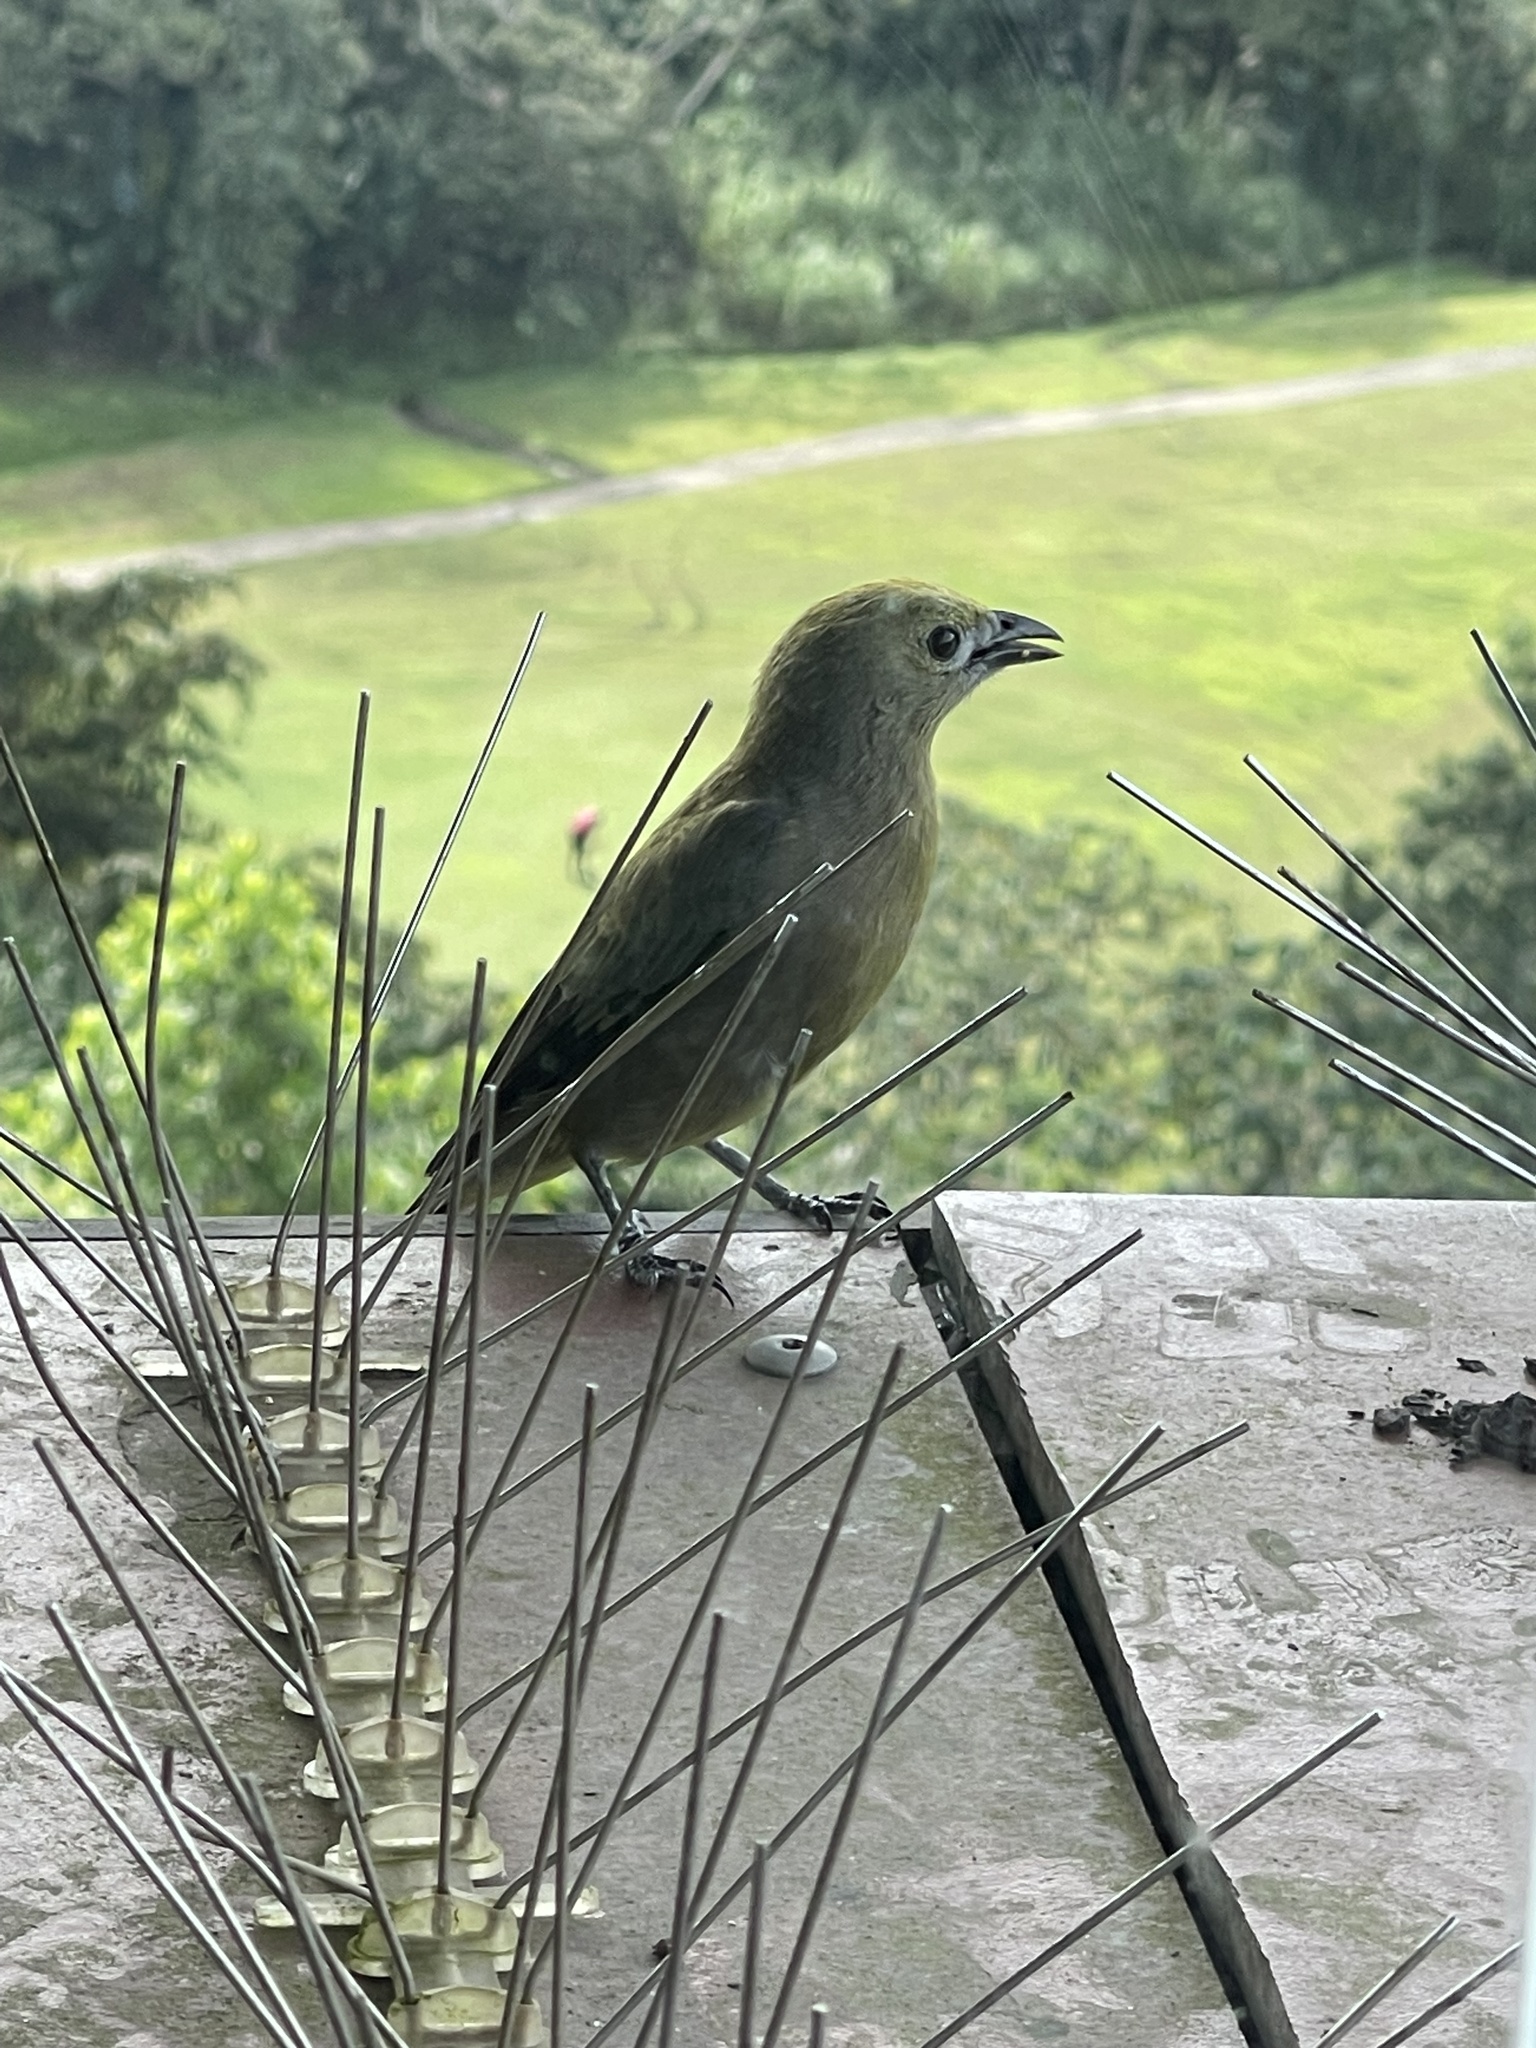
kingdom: Animalia
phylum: Chordata
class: Aves
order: Passeriformes
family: Thraupidae
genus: Thraupis
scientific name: Thraupis palmarum
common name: Palm tanager
